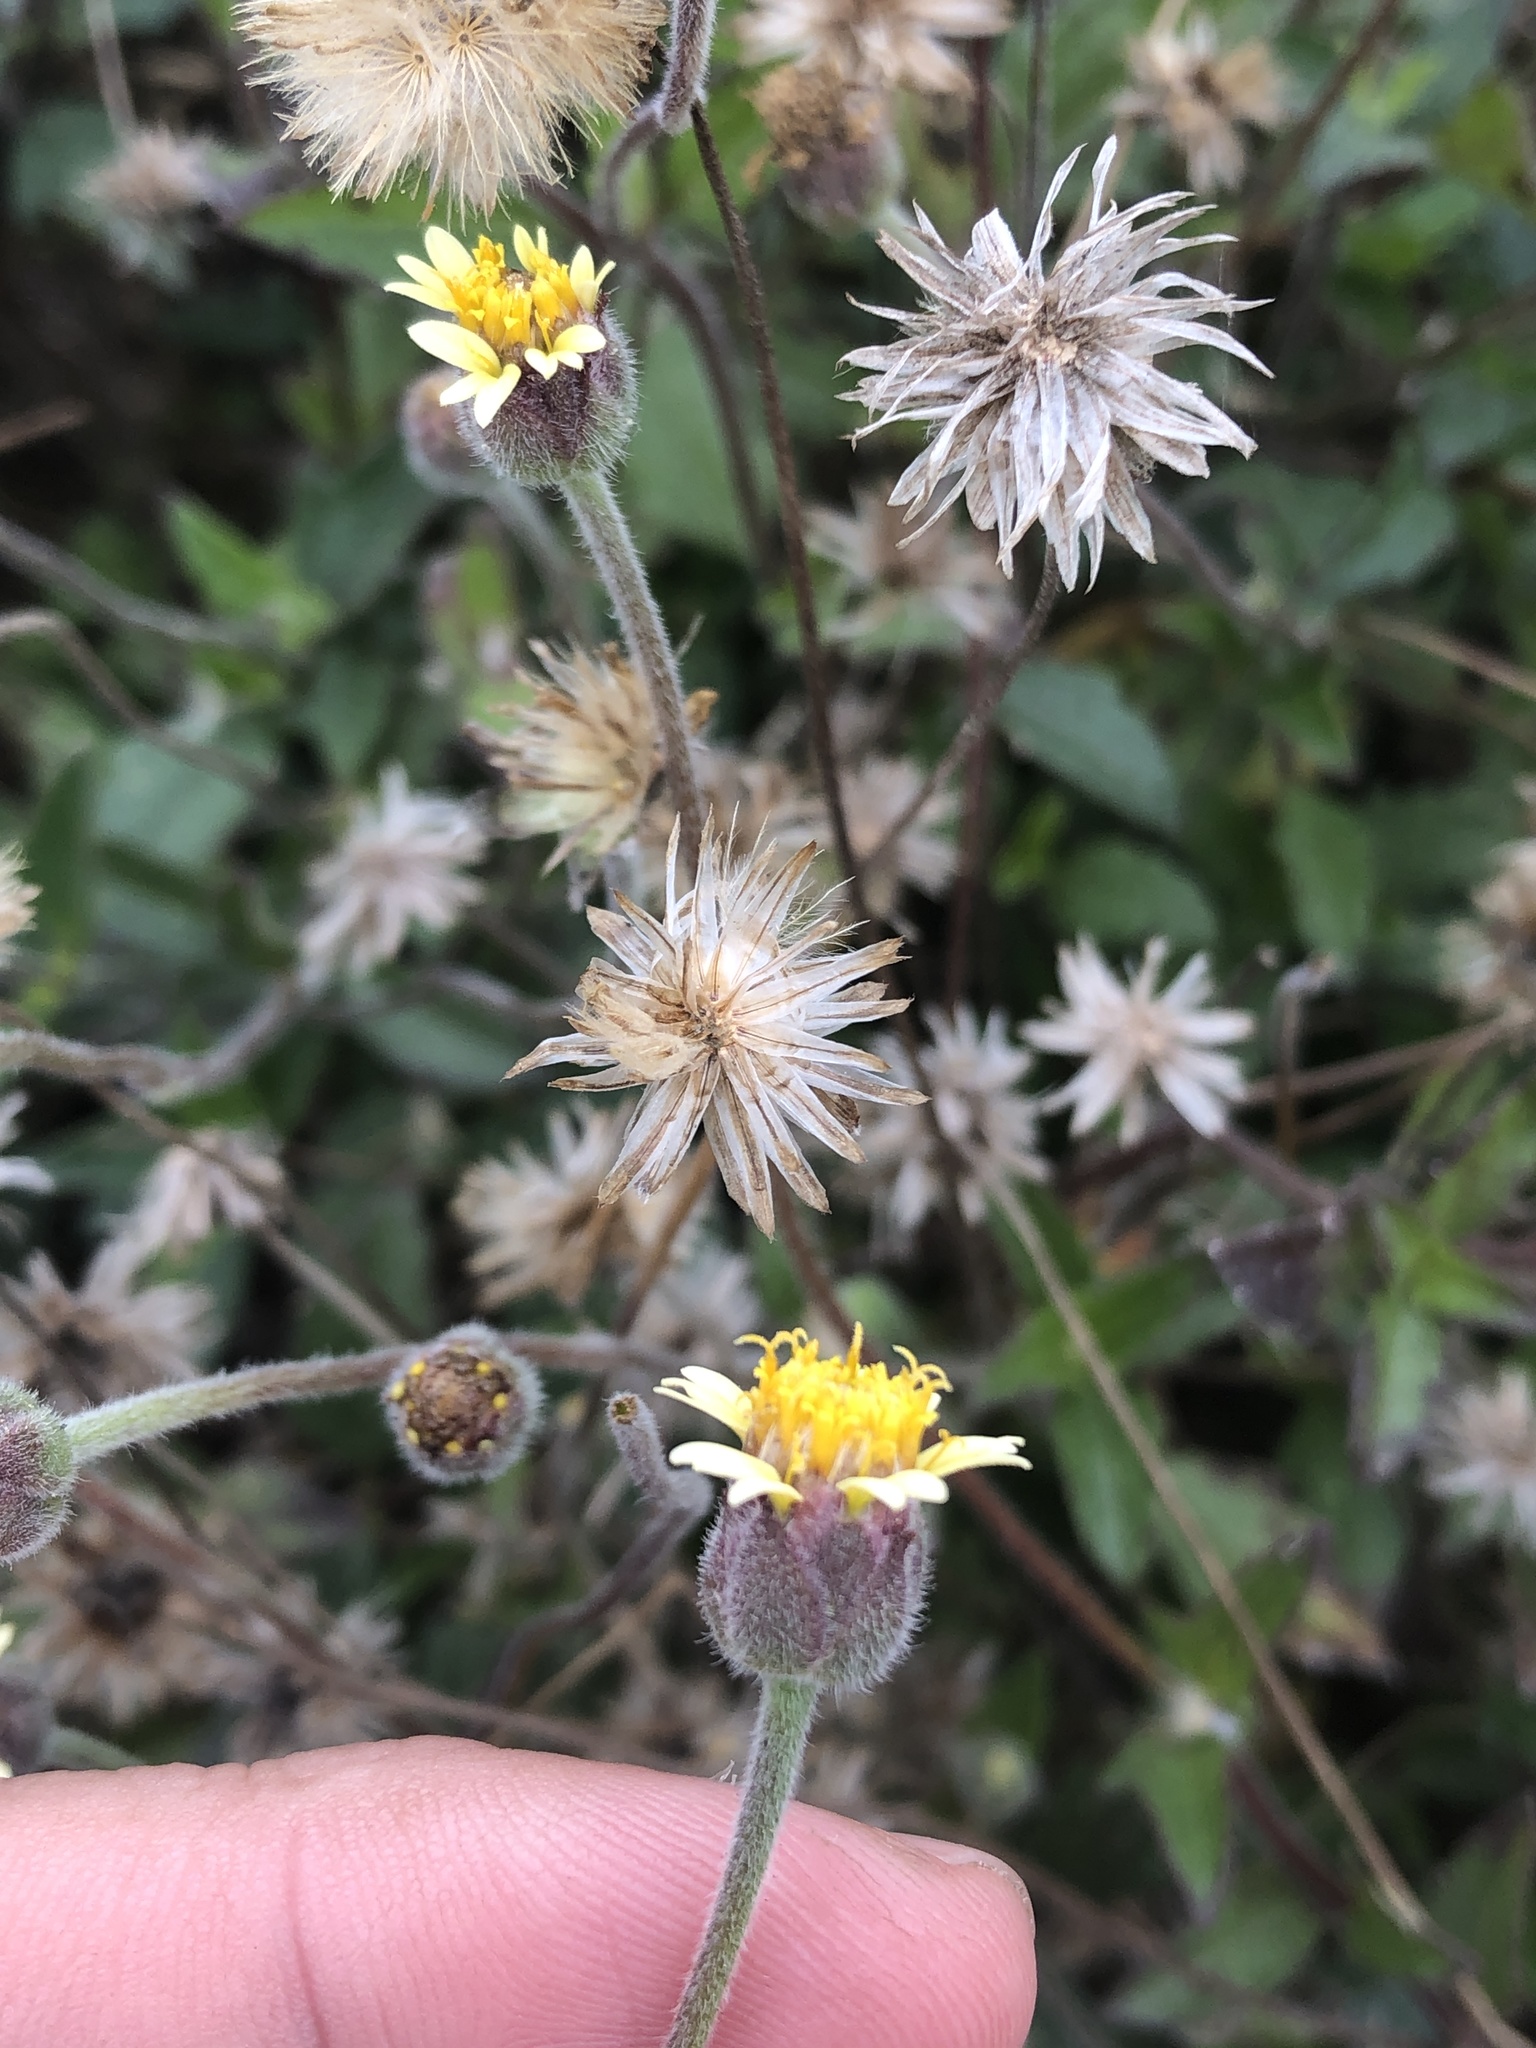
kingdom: Plantae
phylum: Tracheophyta
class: Magnoliopsida
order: Asterales
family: Asteraceae
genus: Tridax
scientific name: Tridax procumbens
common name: Coatbuttons
